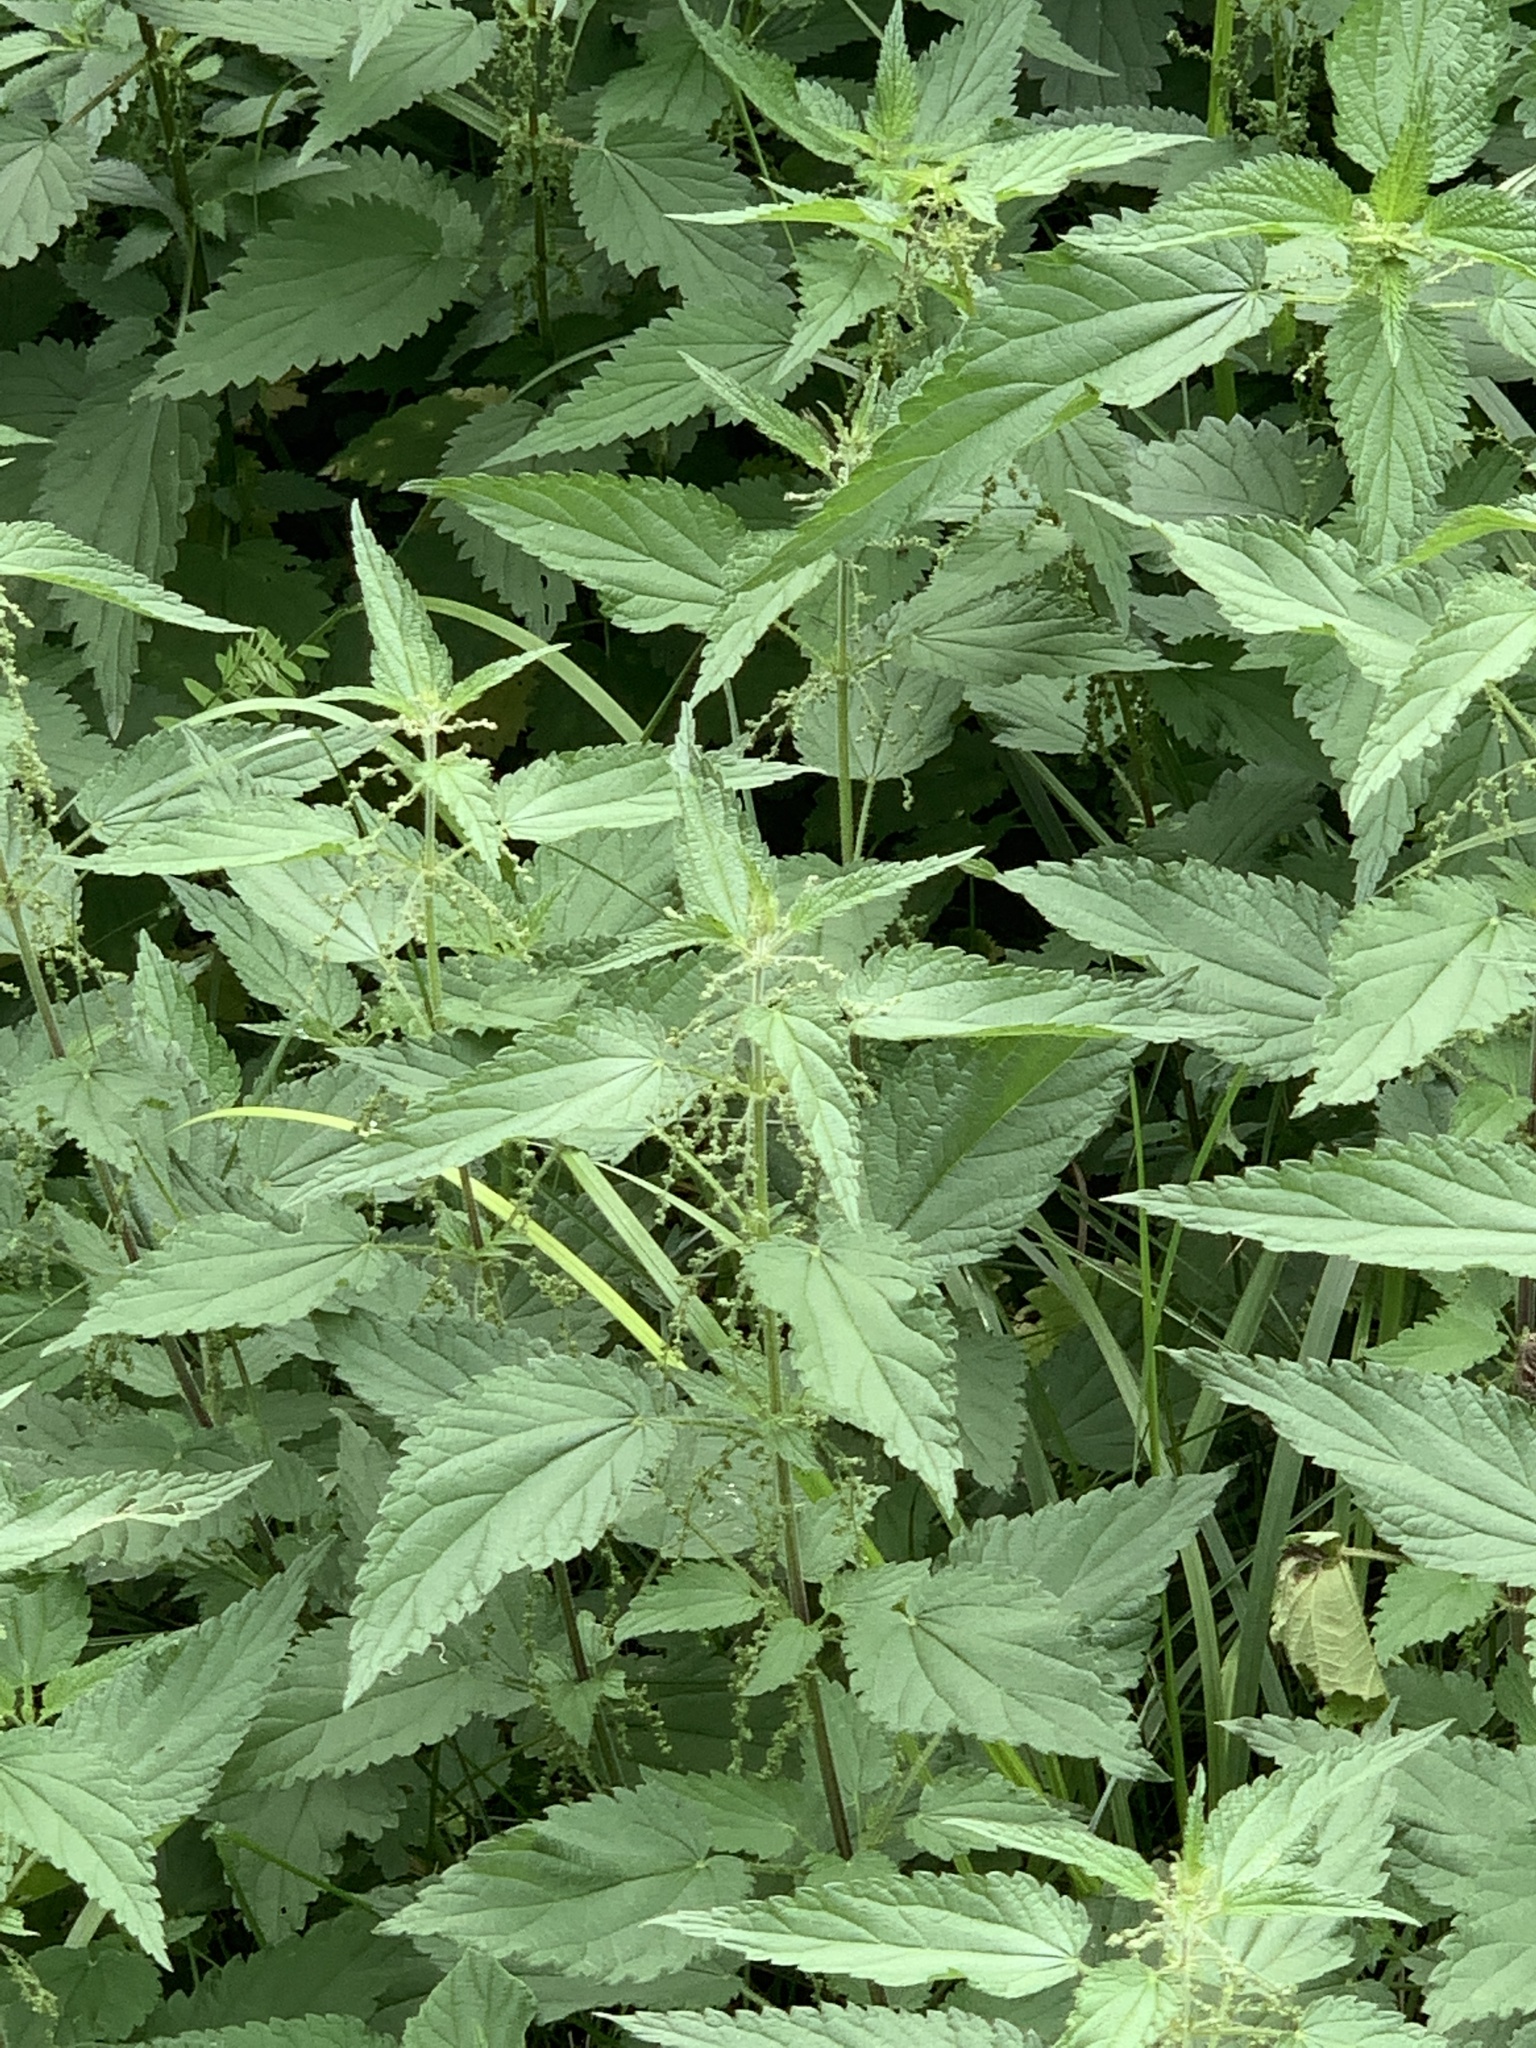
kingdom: Plantae
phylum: Tracheophyta
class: Magnoliopsida
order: Rosales
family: Urticaceae
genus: Urtica
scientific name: Urtica dioica
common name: Common nettle
